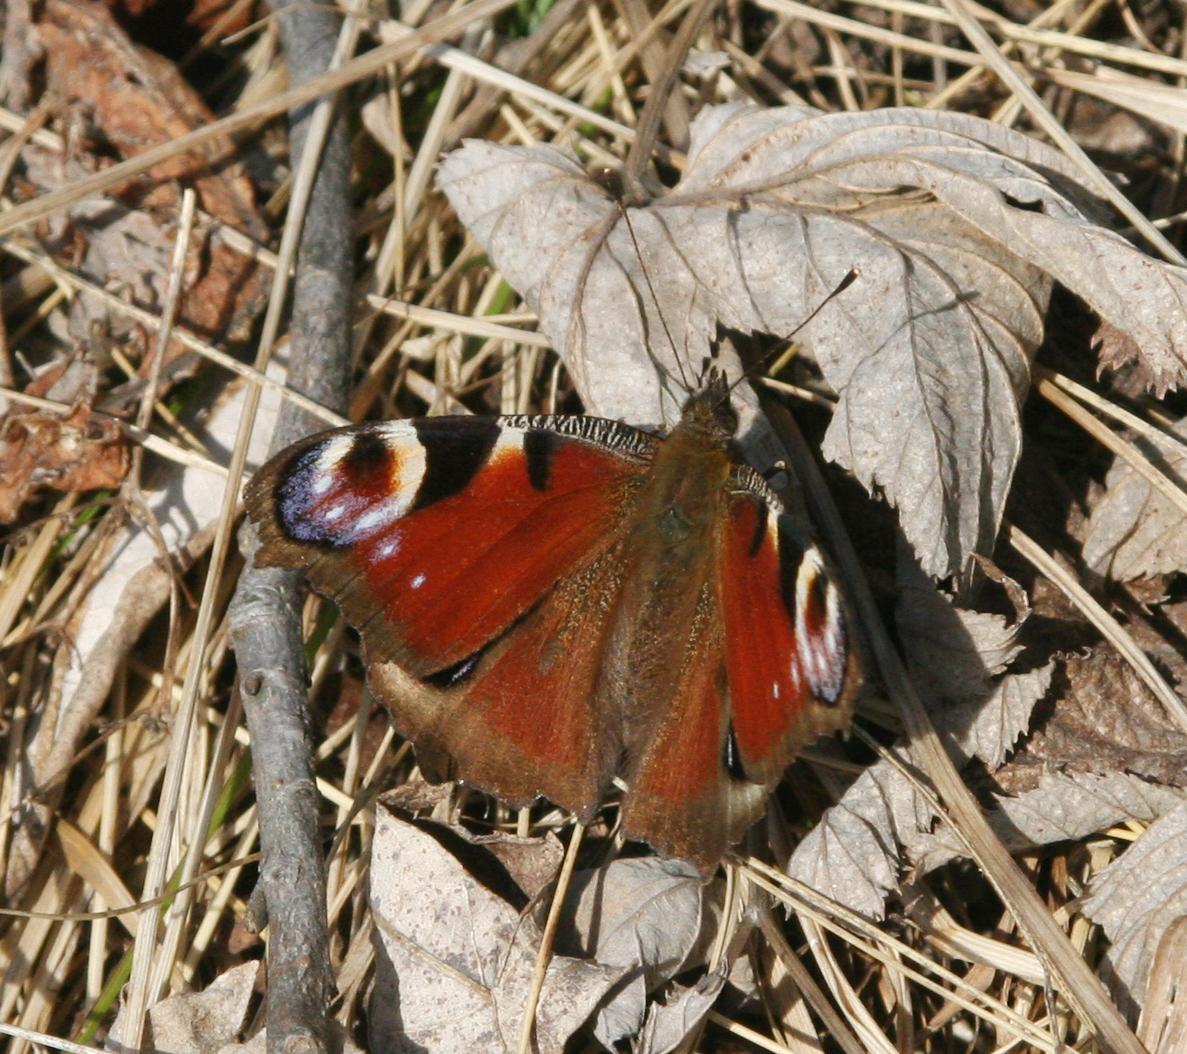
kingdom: Animalia
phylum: Arthropoda
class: Insecta
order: Lepidoptera
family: Nymphalidae
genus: Aglais
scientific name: Aglais io
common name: Peacock
